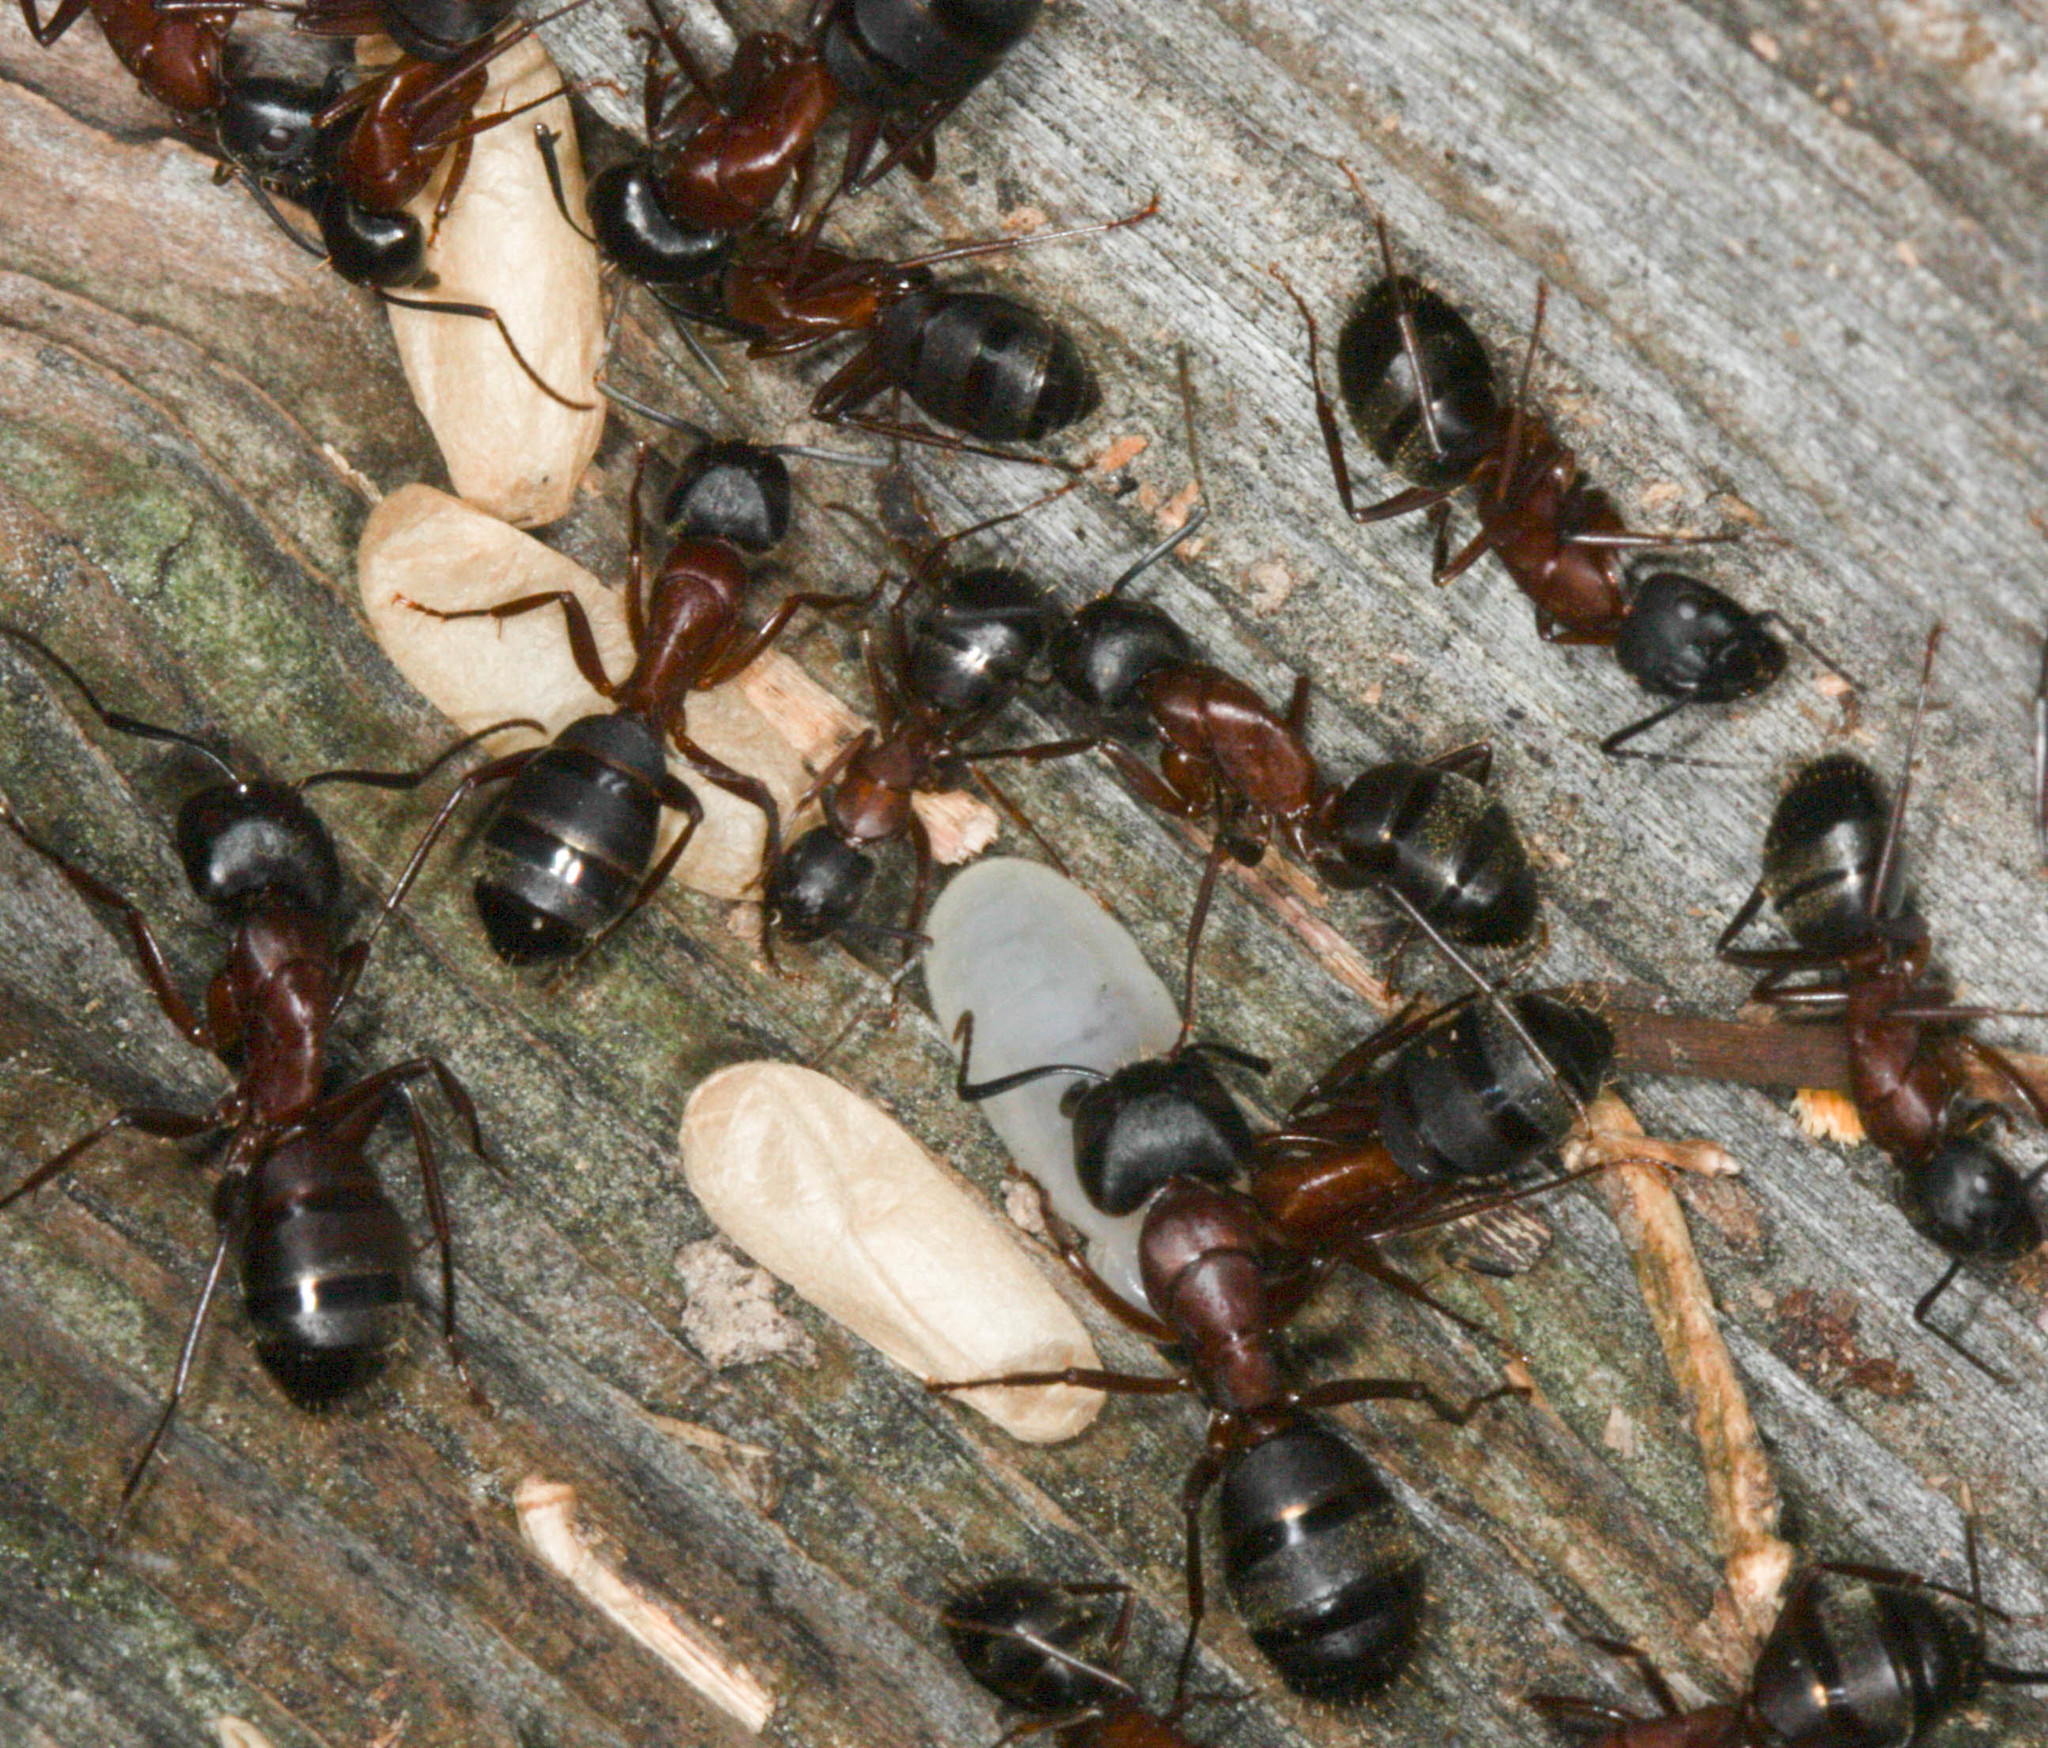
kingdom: Animalia
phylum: Arthropoda
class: Insecta
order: Hymenoptera
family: Formicidae
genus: Camponotus
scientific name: Camponotus vicinus
